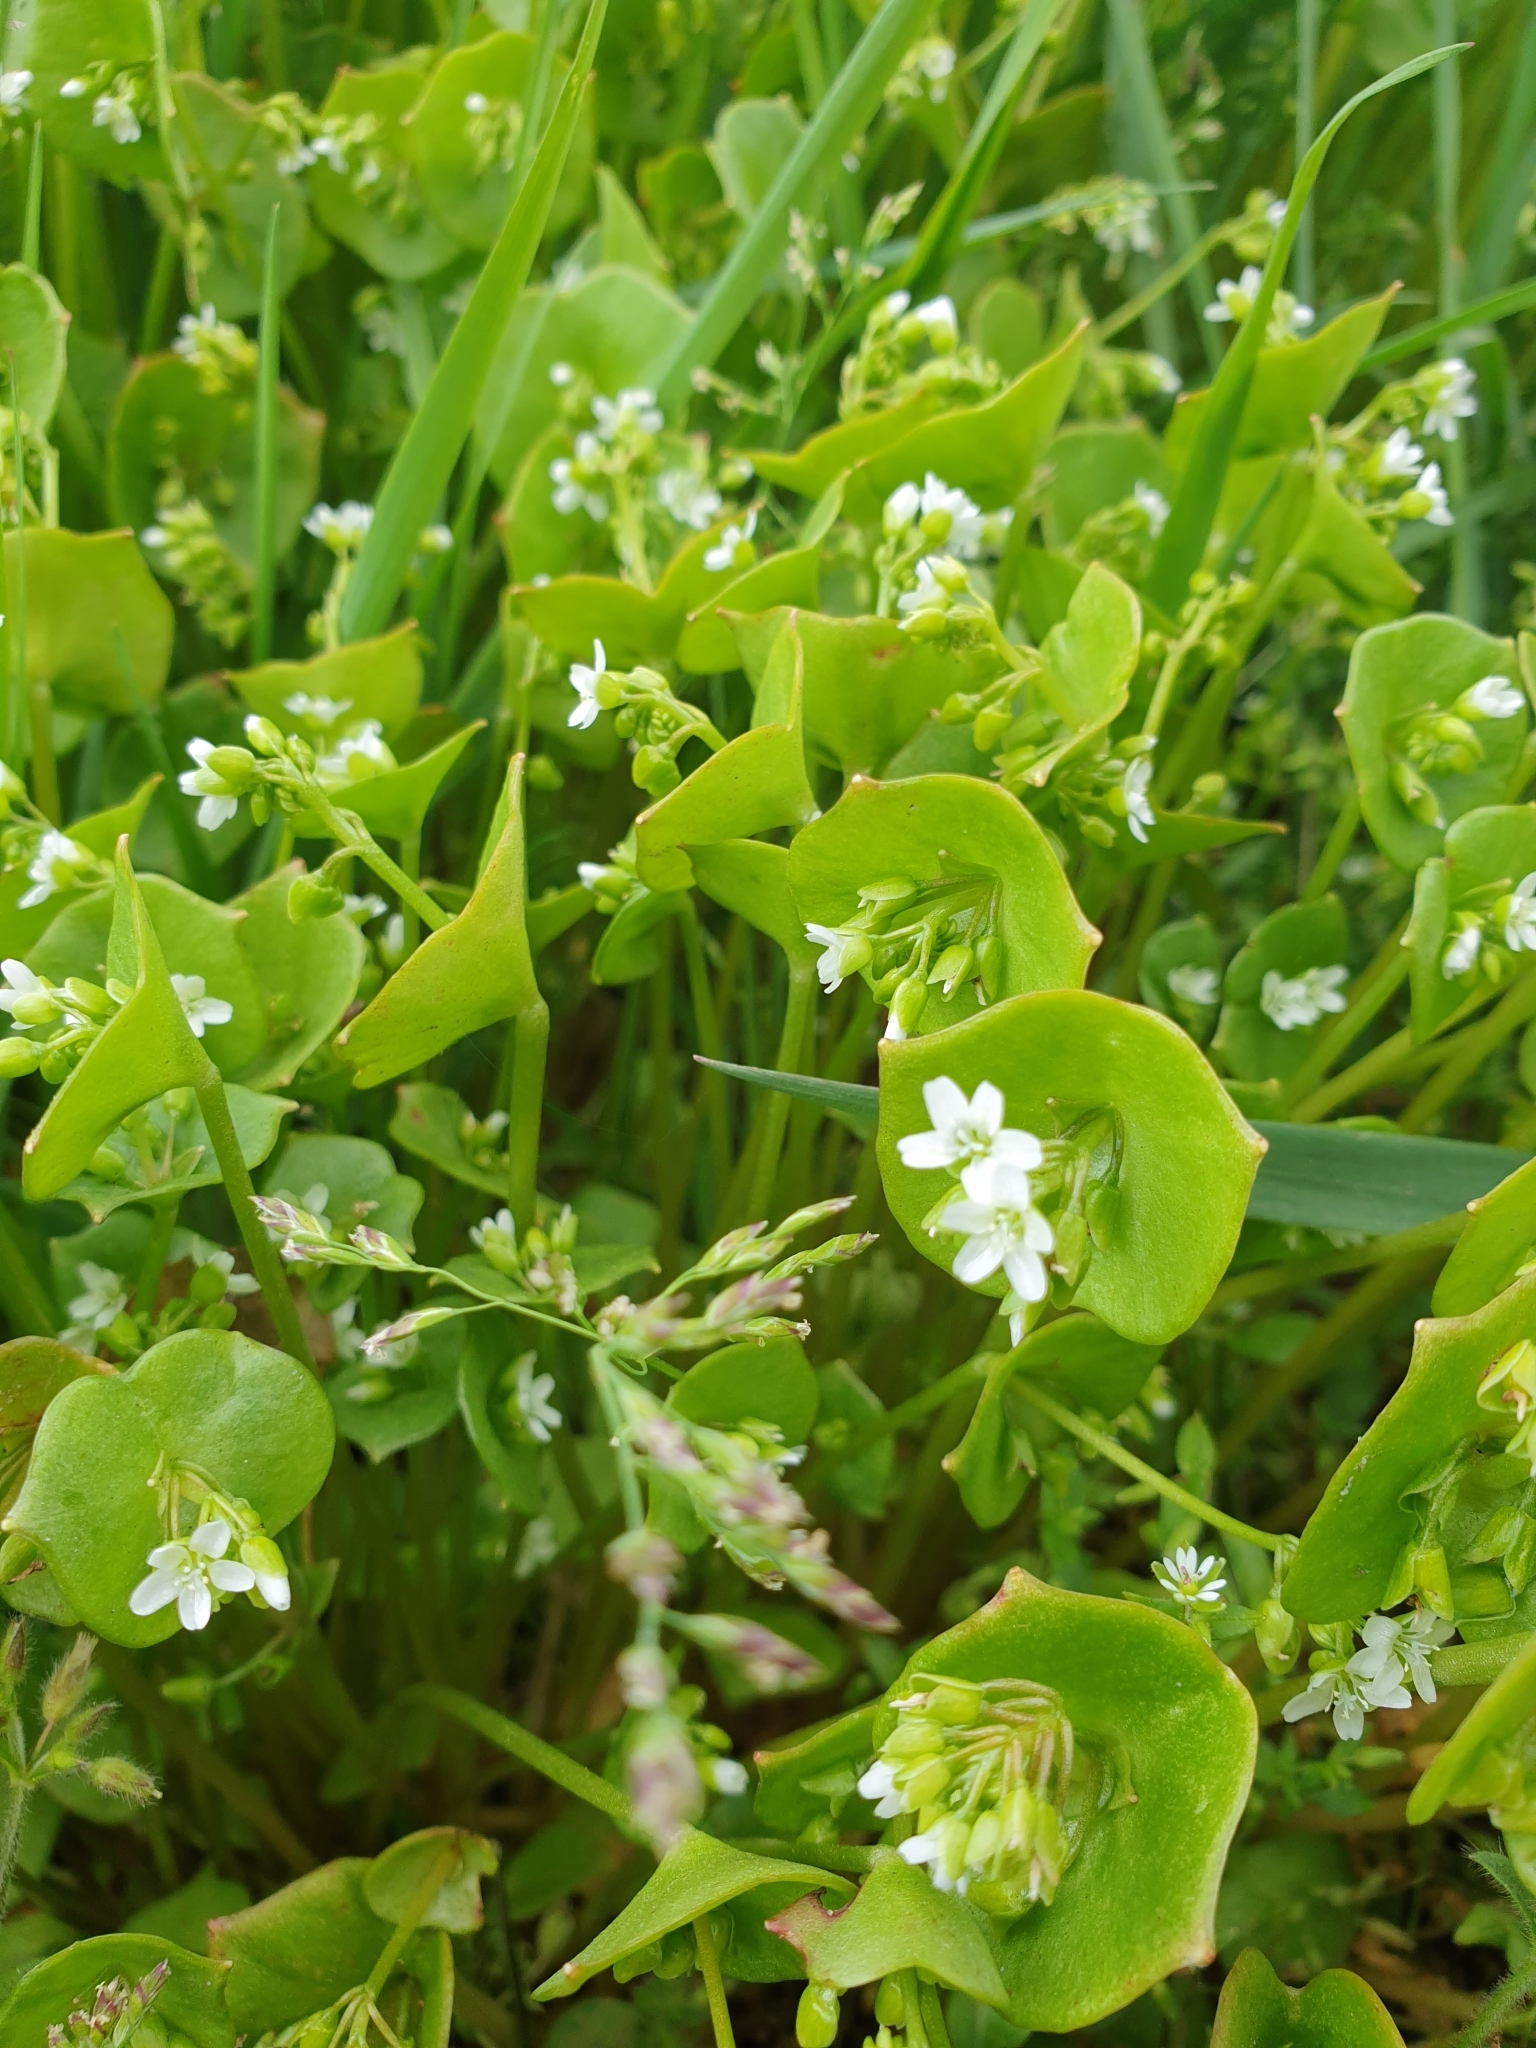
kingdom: Plantae
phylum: Tracheophyta
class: Magnoliopsida
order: Caryophyllales
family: Montiaceae
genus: Claytonia
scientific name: Claytonia perfoliata
